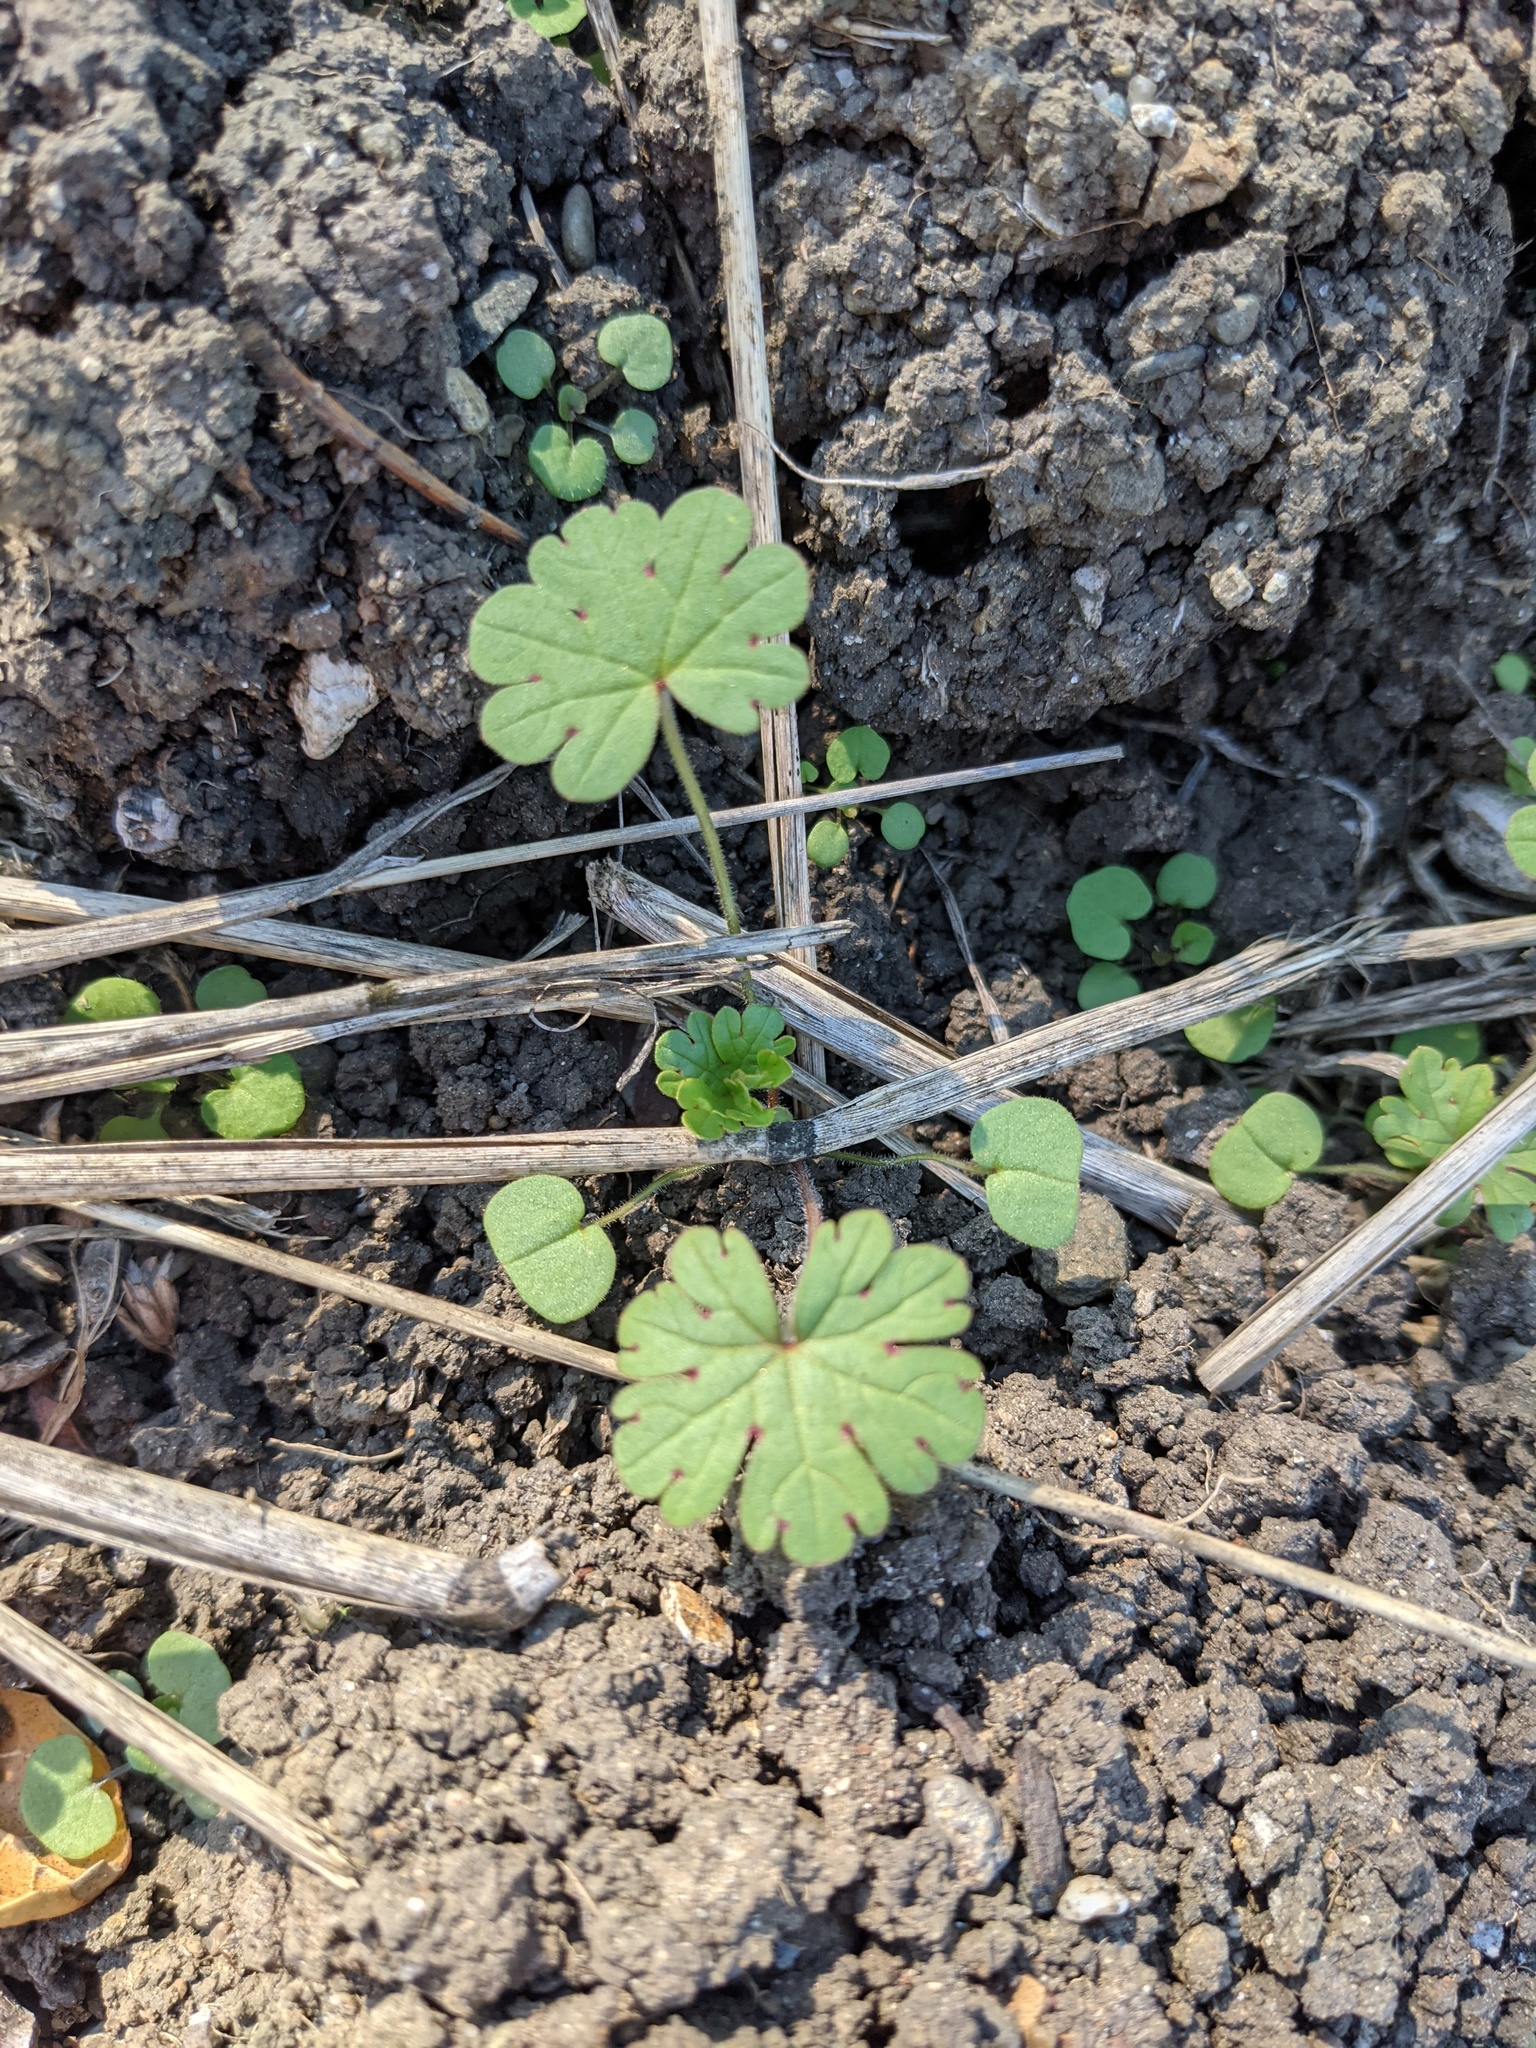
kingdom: Plantae
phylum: Tracheophyta
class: Magnoliopsida
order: Geraniales
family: Geraniaceae
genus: Geranium
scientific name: Geranium
